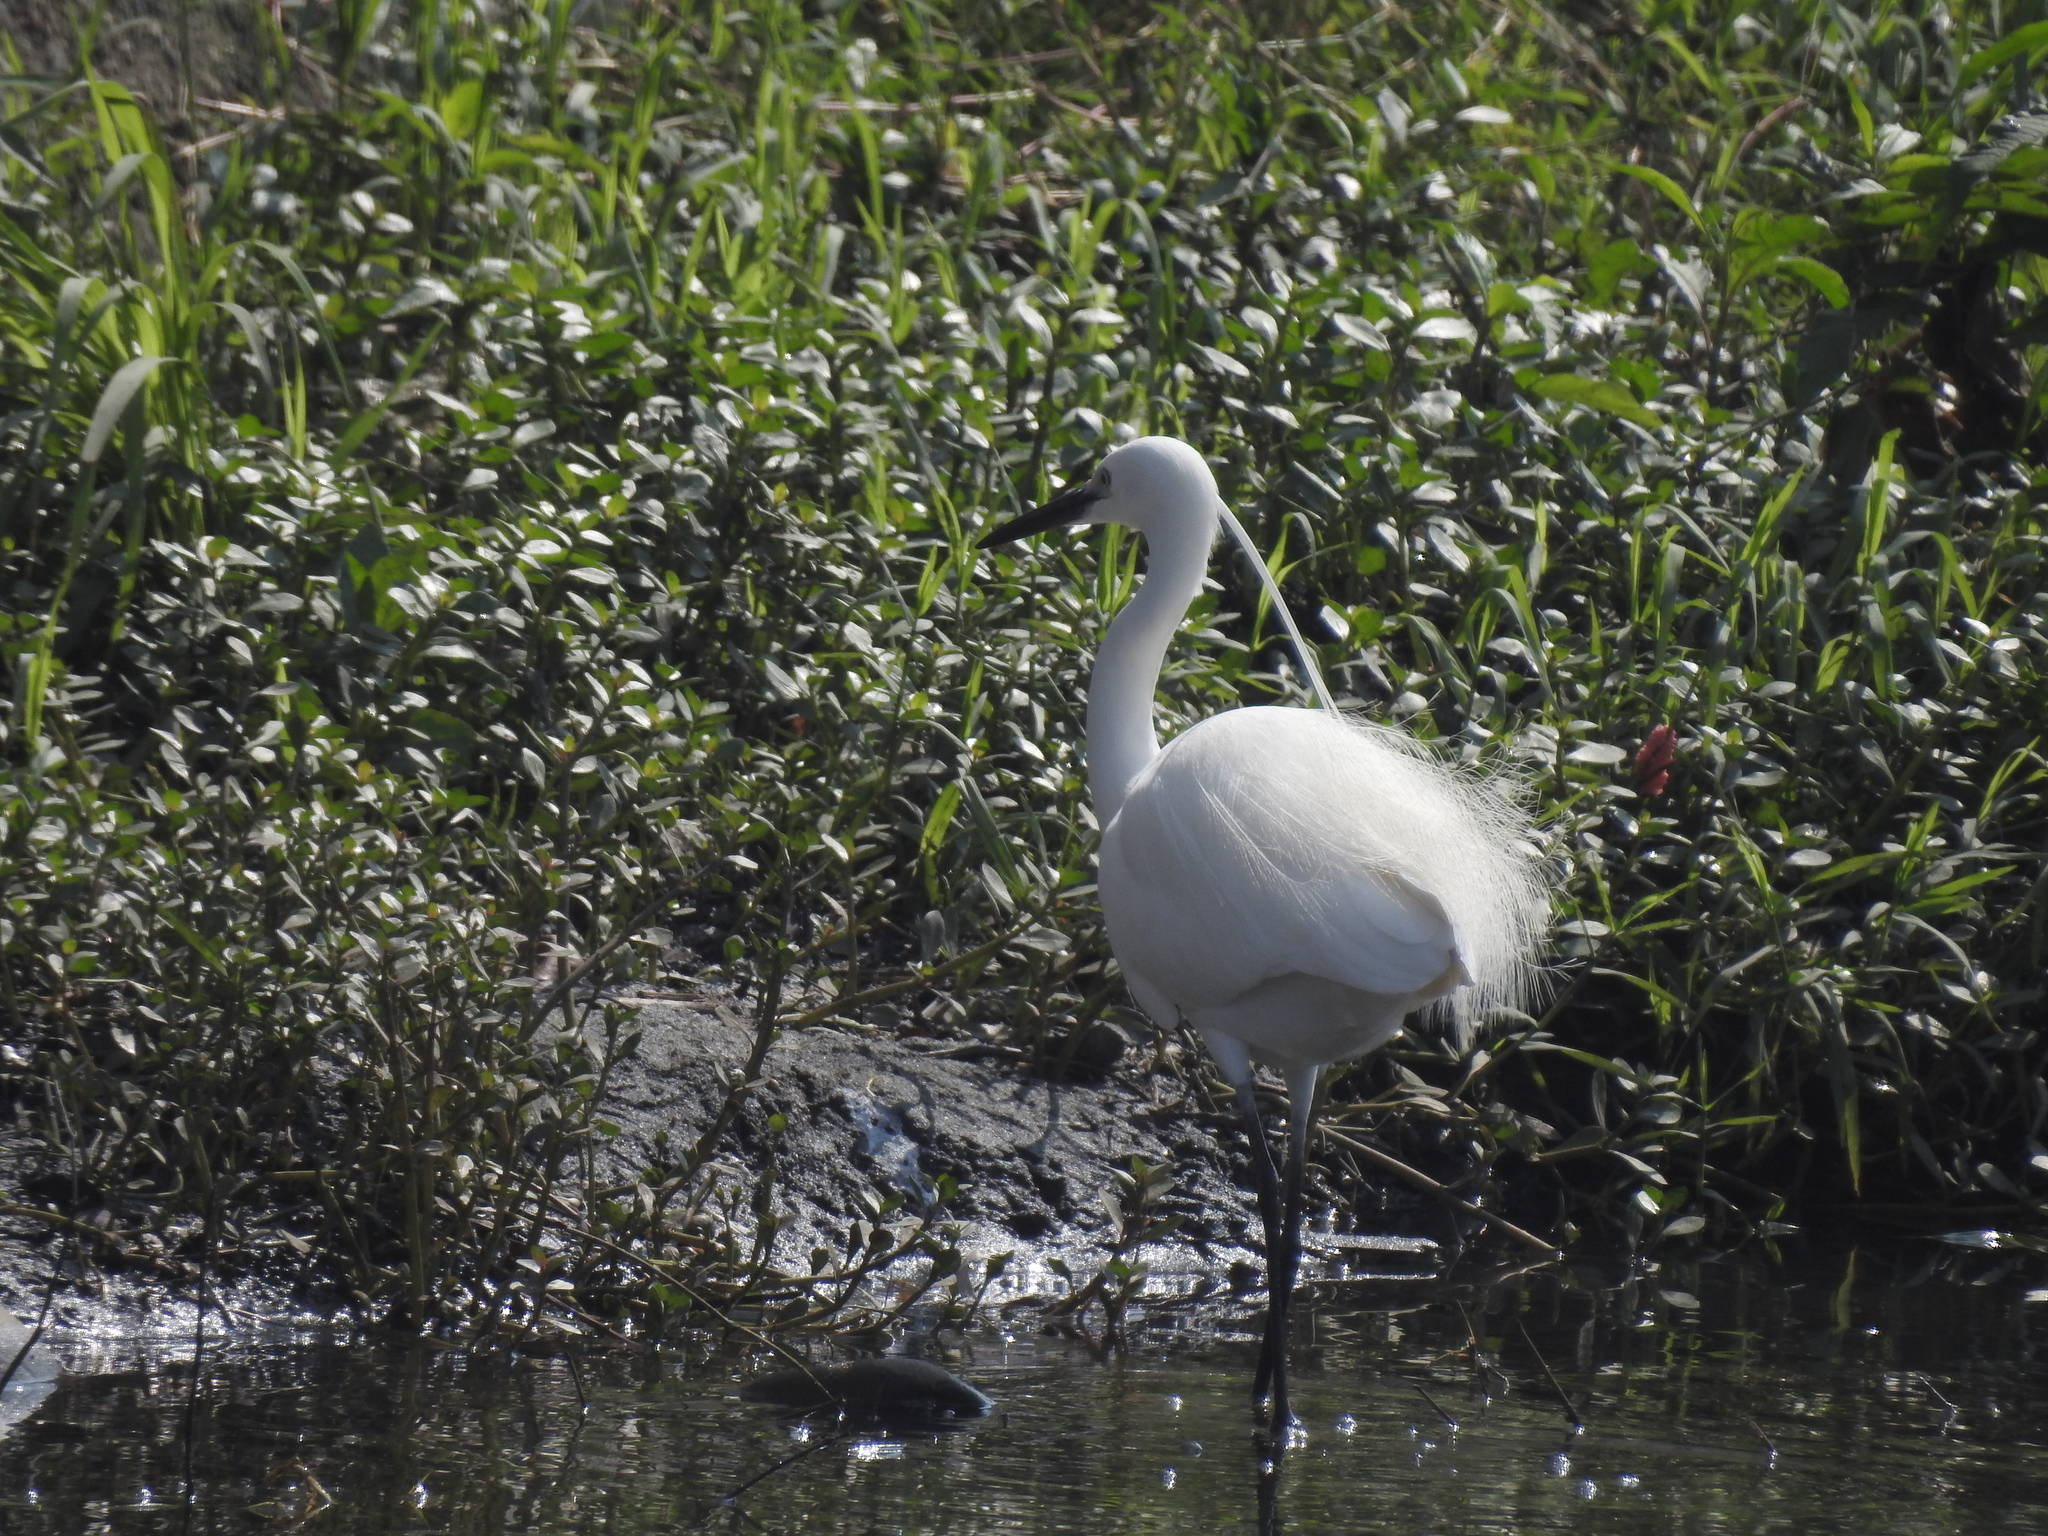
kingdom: Animalia
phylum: Chordata
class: Aves
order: Pelecaniformes
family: Ardeidae
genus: Egretta
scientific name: Egretta garzetta
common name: Little egret
